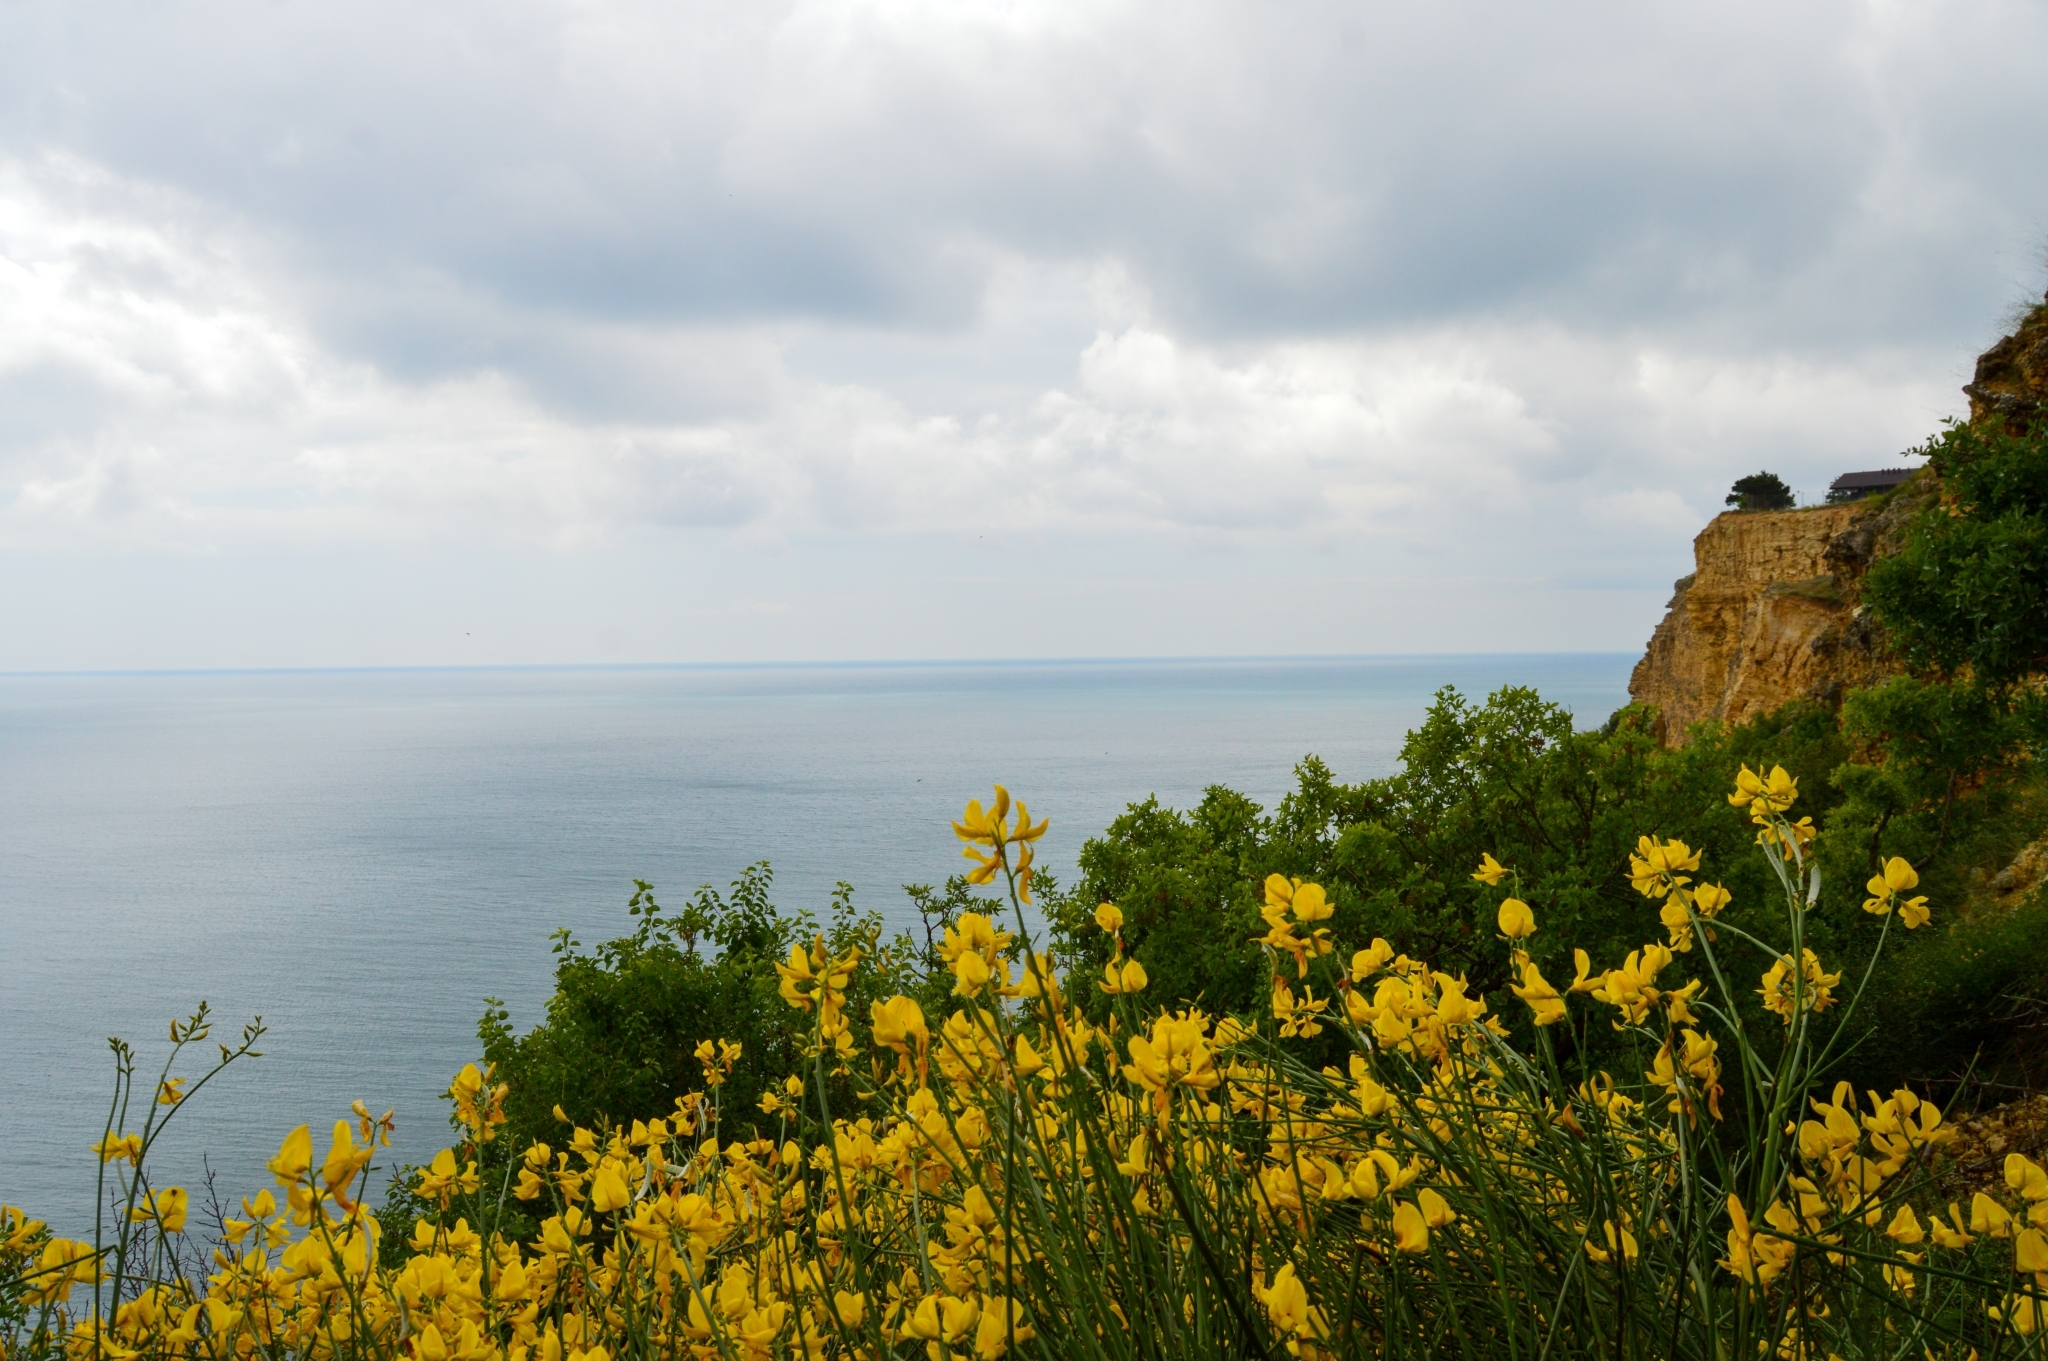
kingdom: Plantae
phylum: Tracheophyta
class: Magnoliopsida
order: Fabales
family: Fabaceae
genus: Spartium
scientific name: Spartium junceum
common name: Spanish broom
